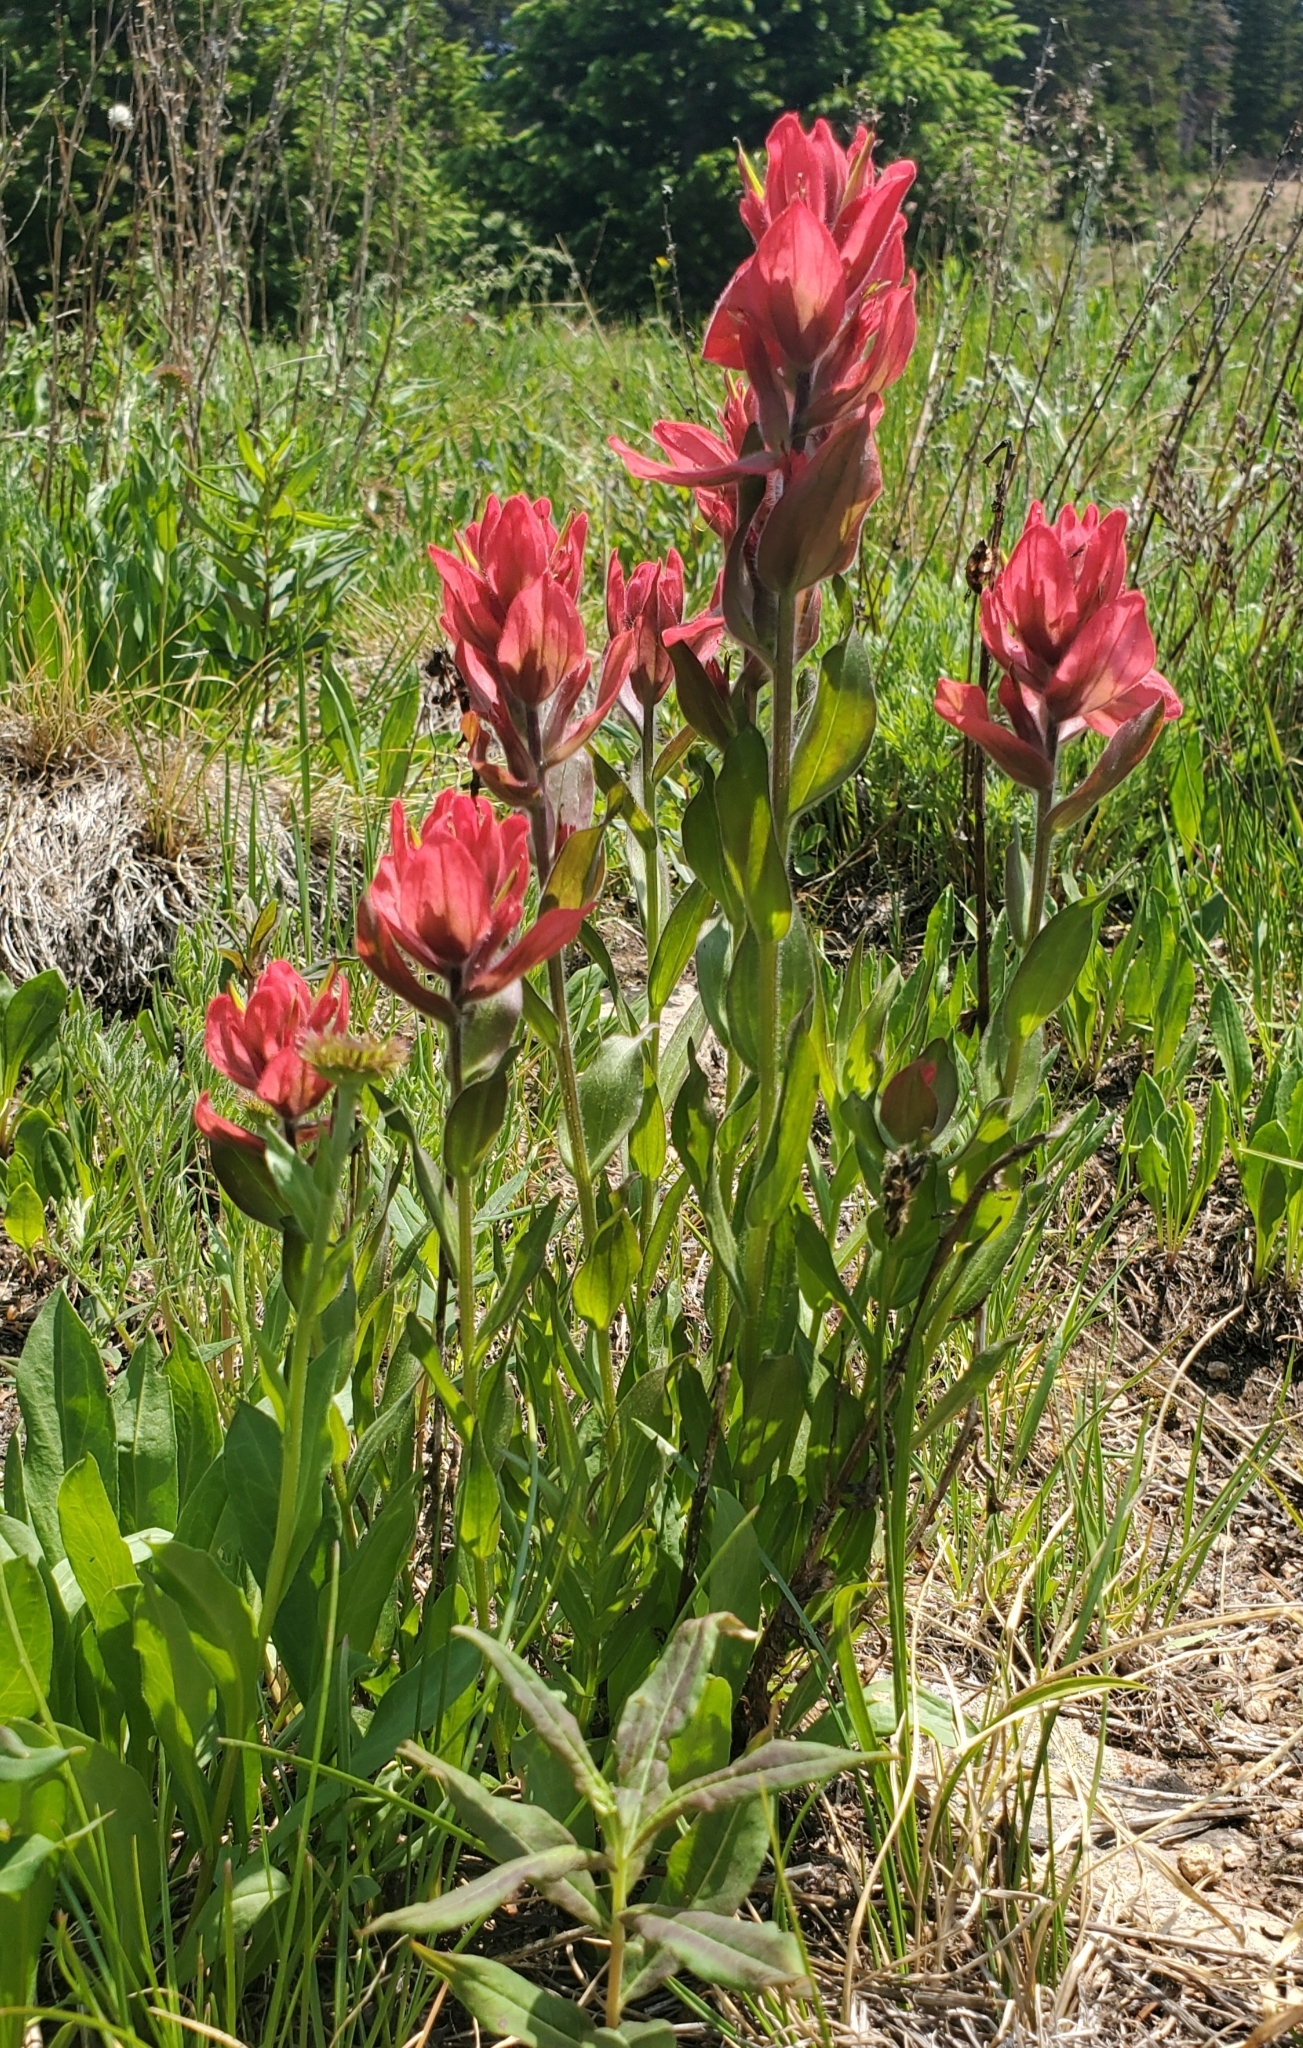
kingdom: Plantae
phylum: Tracheophyta
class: Magnoliopsida
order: Lamiales
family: Orobanchaceae
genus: Castilleja
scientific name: Castilleja rhexifolia
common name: Rocky mountain paintbrush
